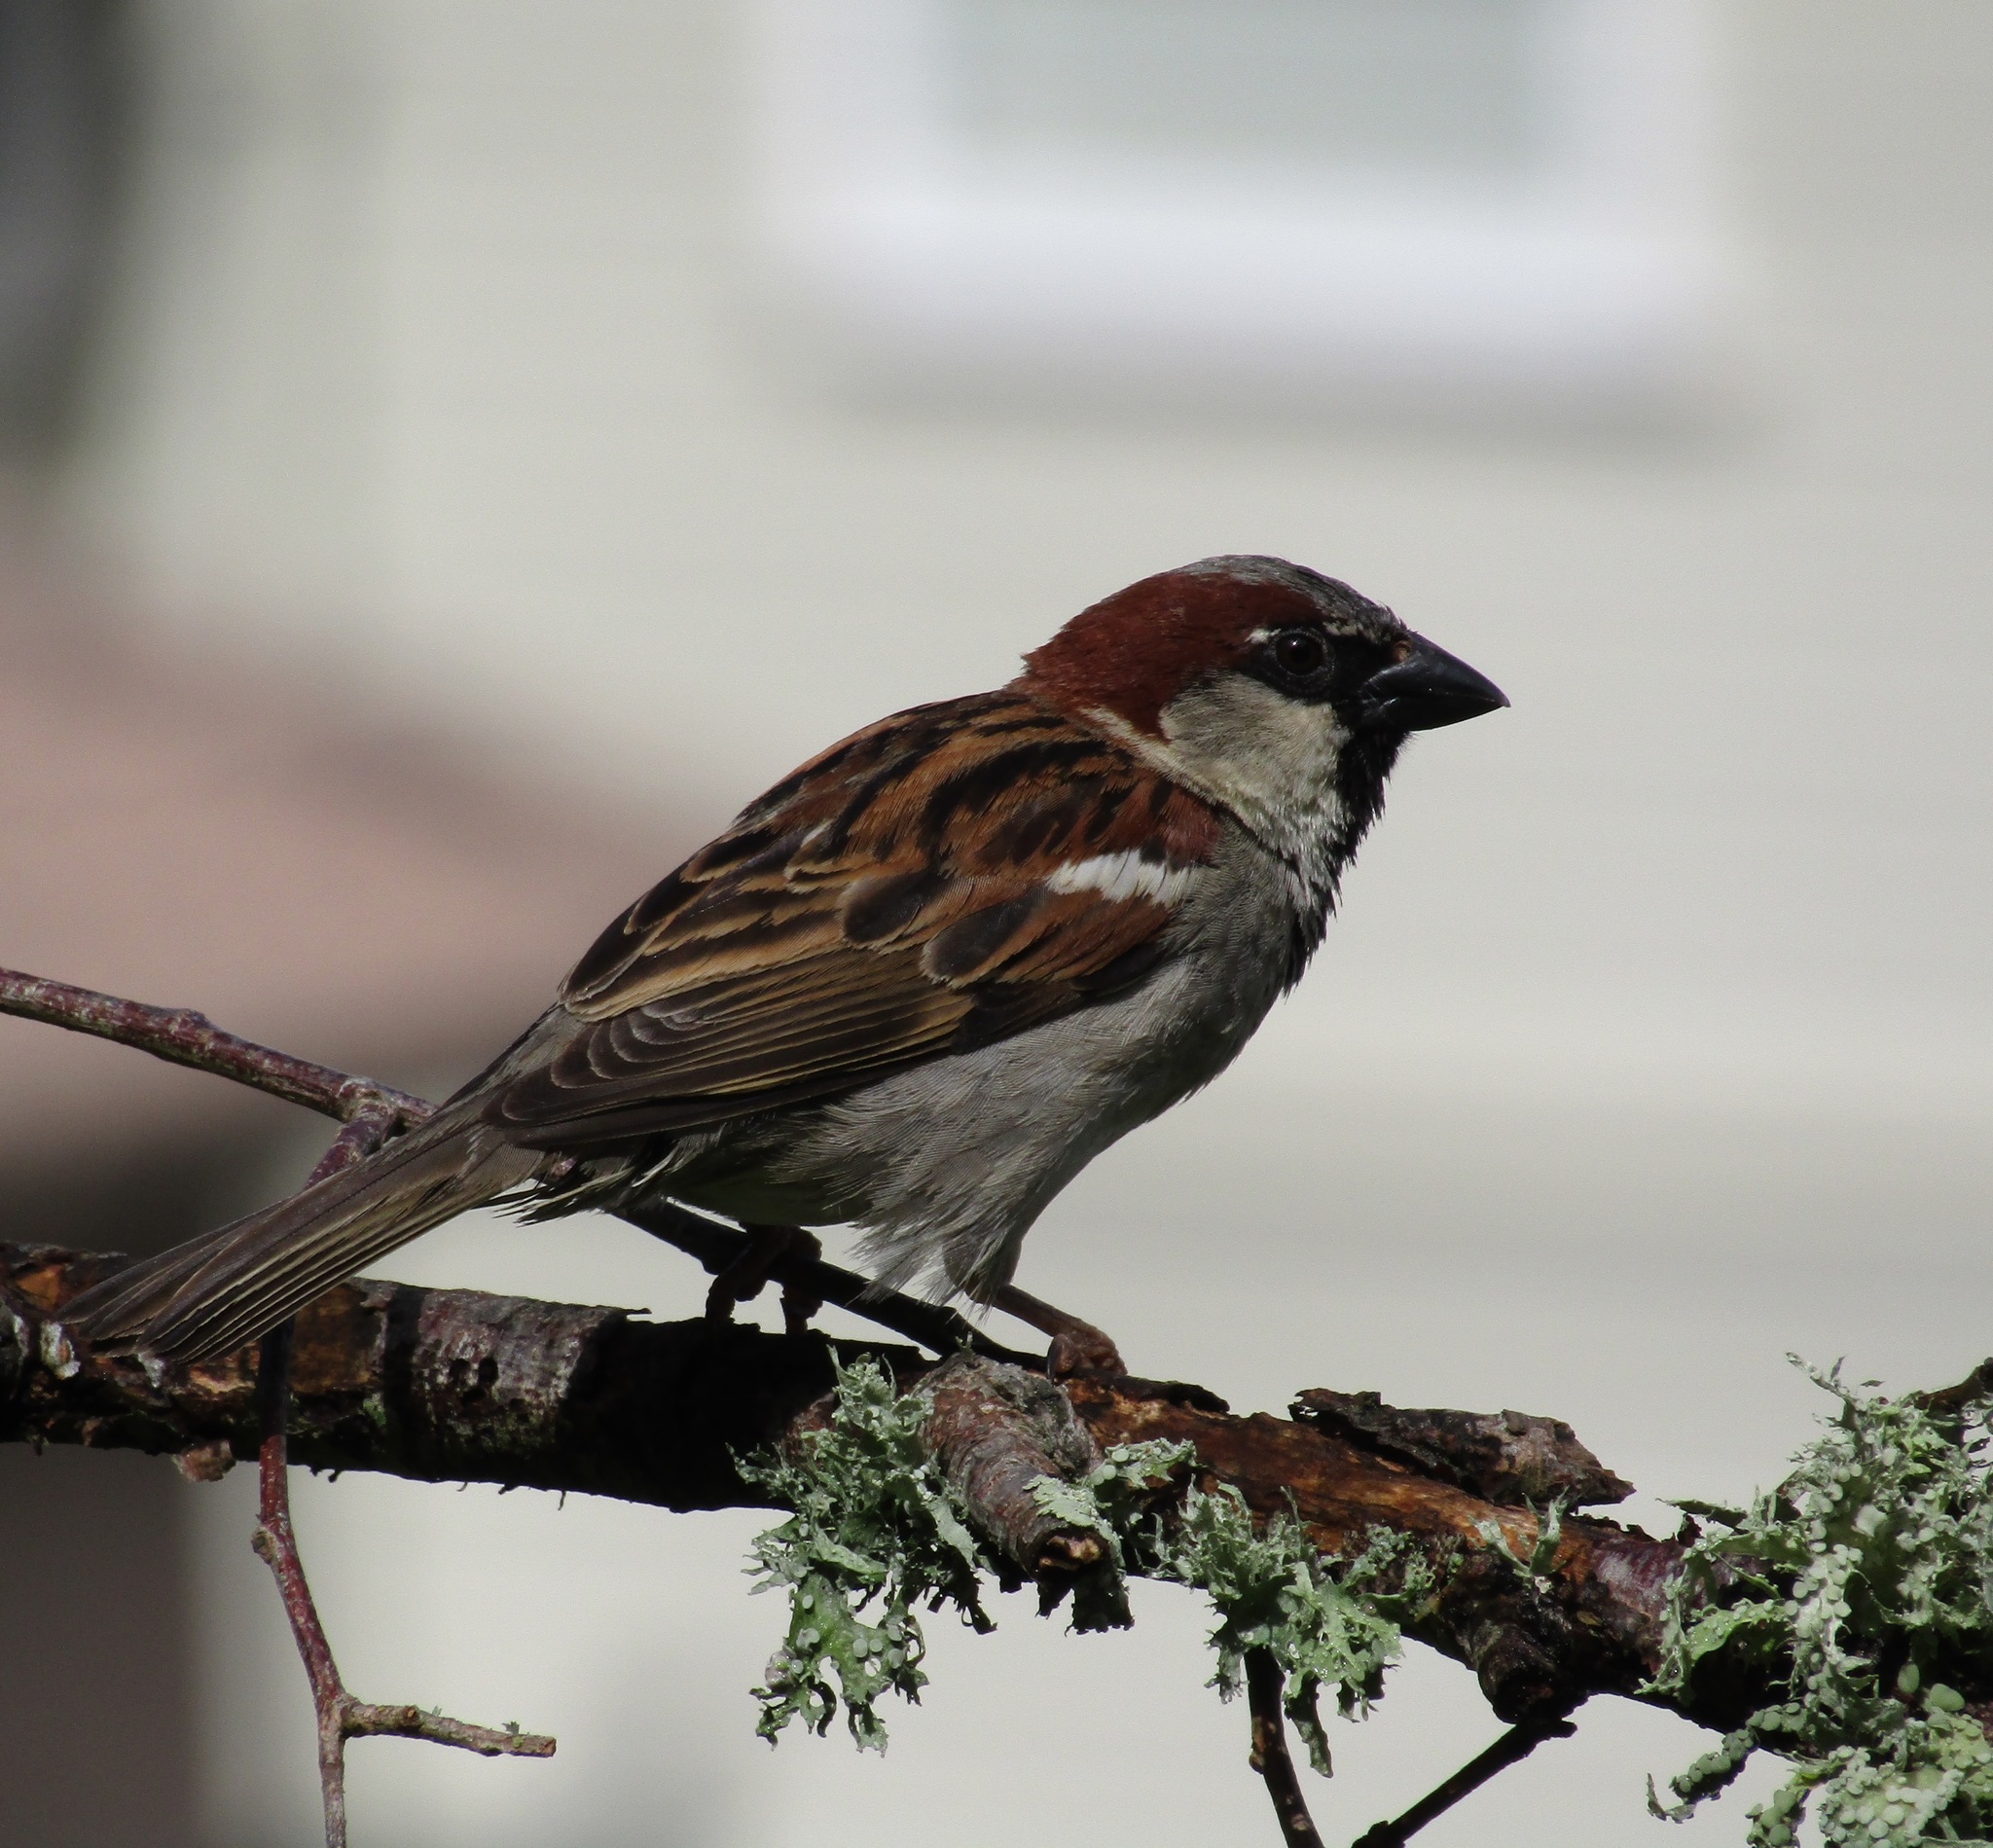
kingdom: Animalia
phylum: Chordata
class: Aves
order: Passeriformes
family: Passeridae
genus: Passer
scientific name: Passer domesticus
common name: House sparrow
